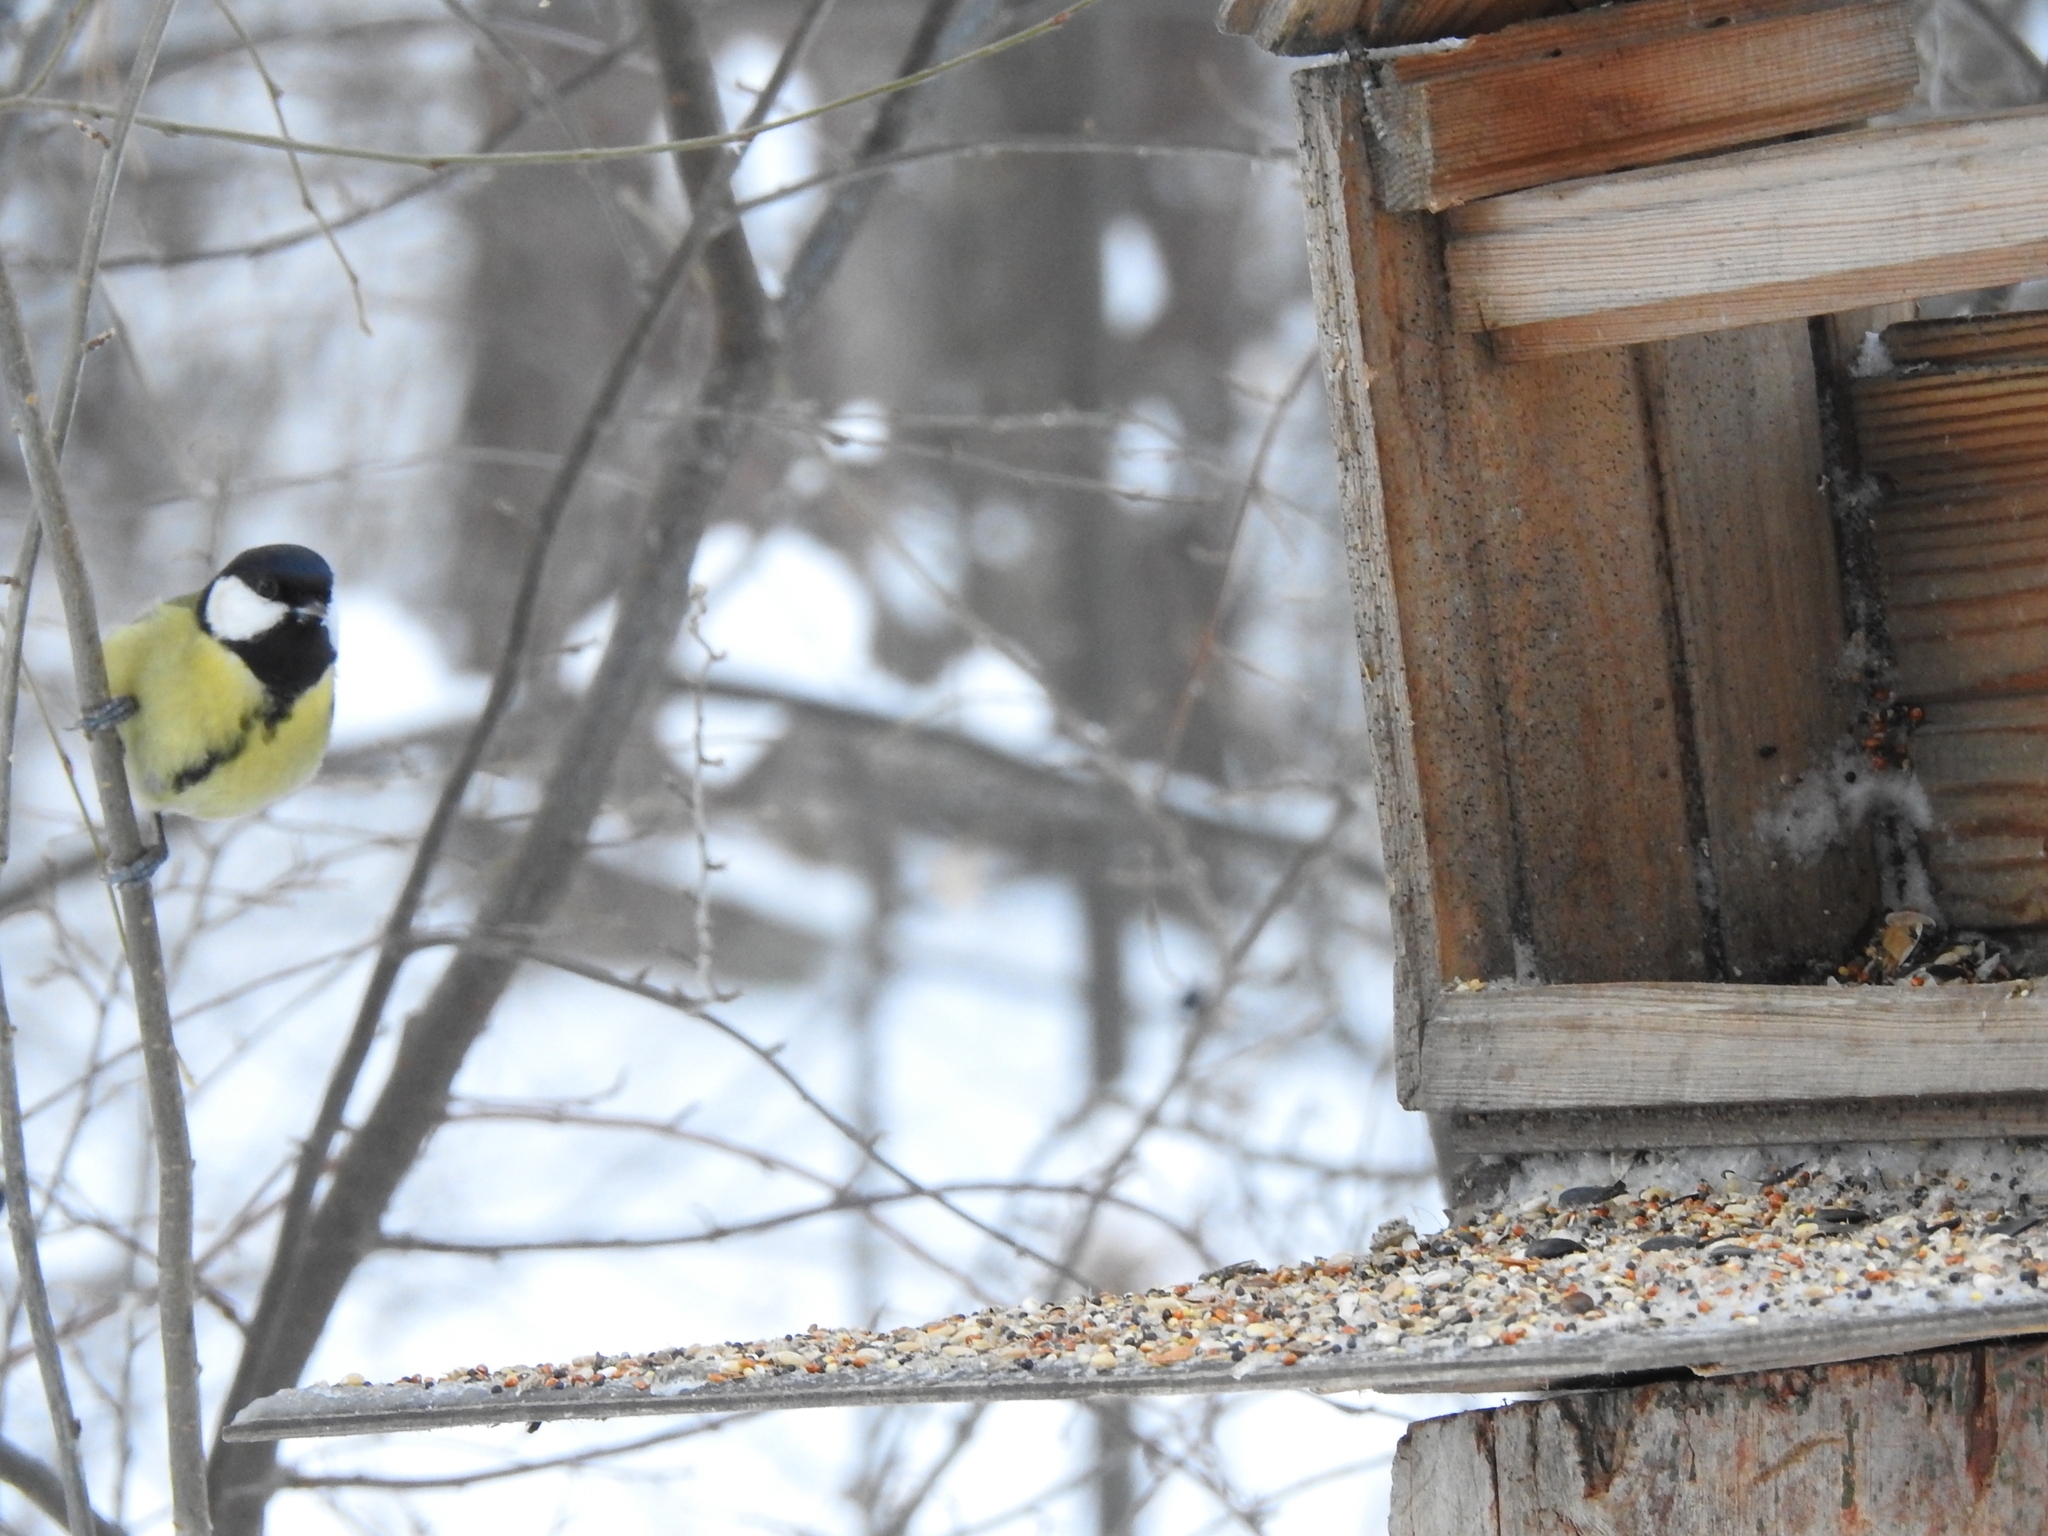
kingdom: Animalia
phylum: Chordata
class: Aves
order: Passeriformes
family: Paridae
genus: Parus
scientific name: Parus major
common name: Great tit
